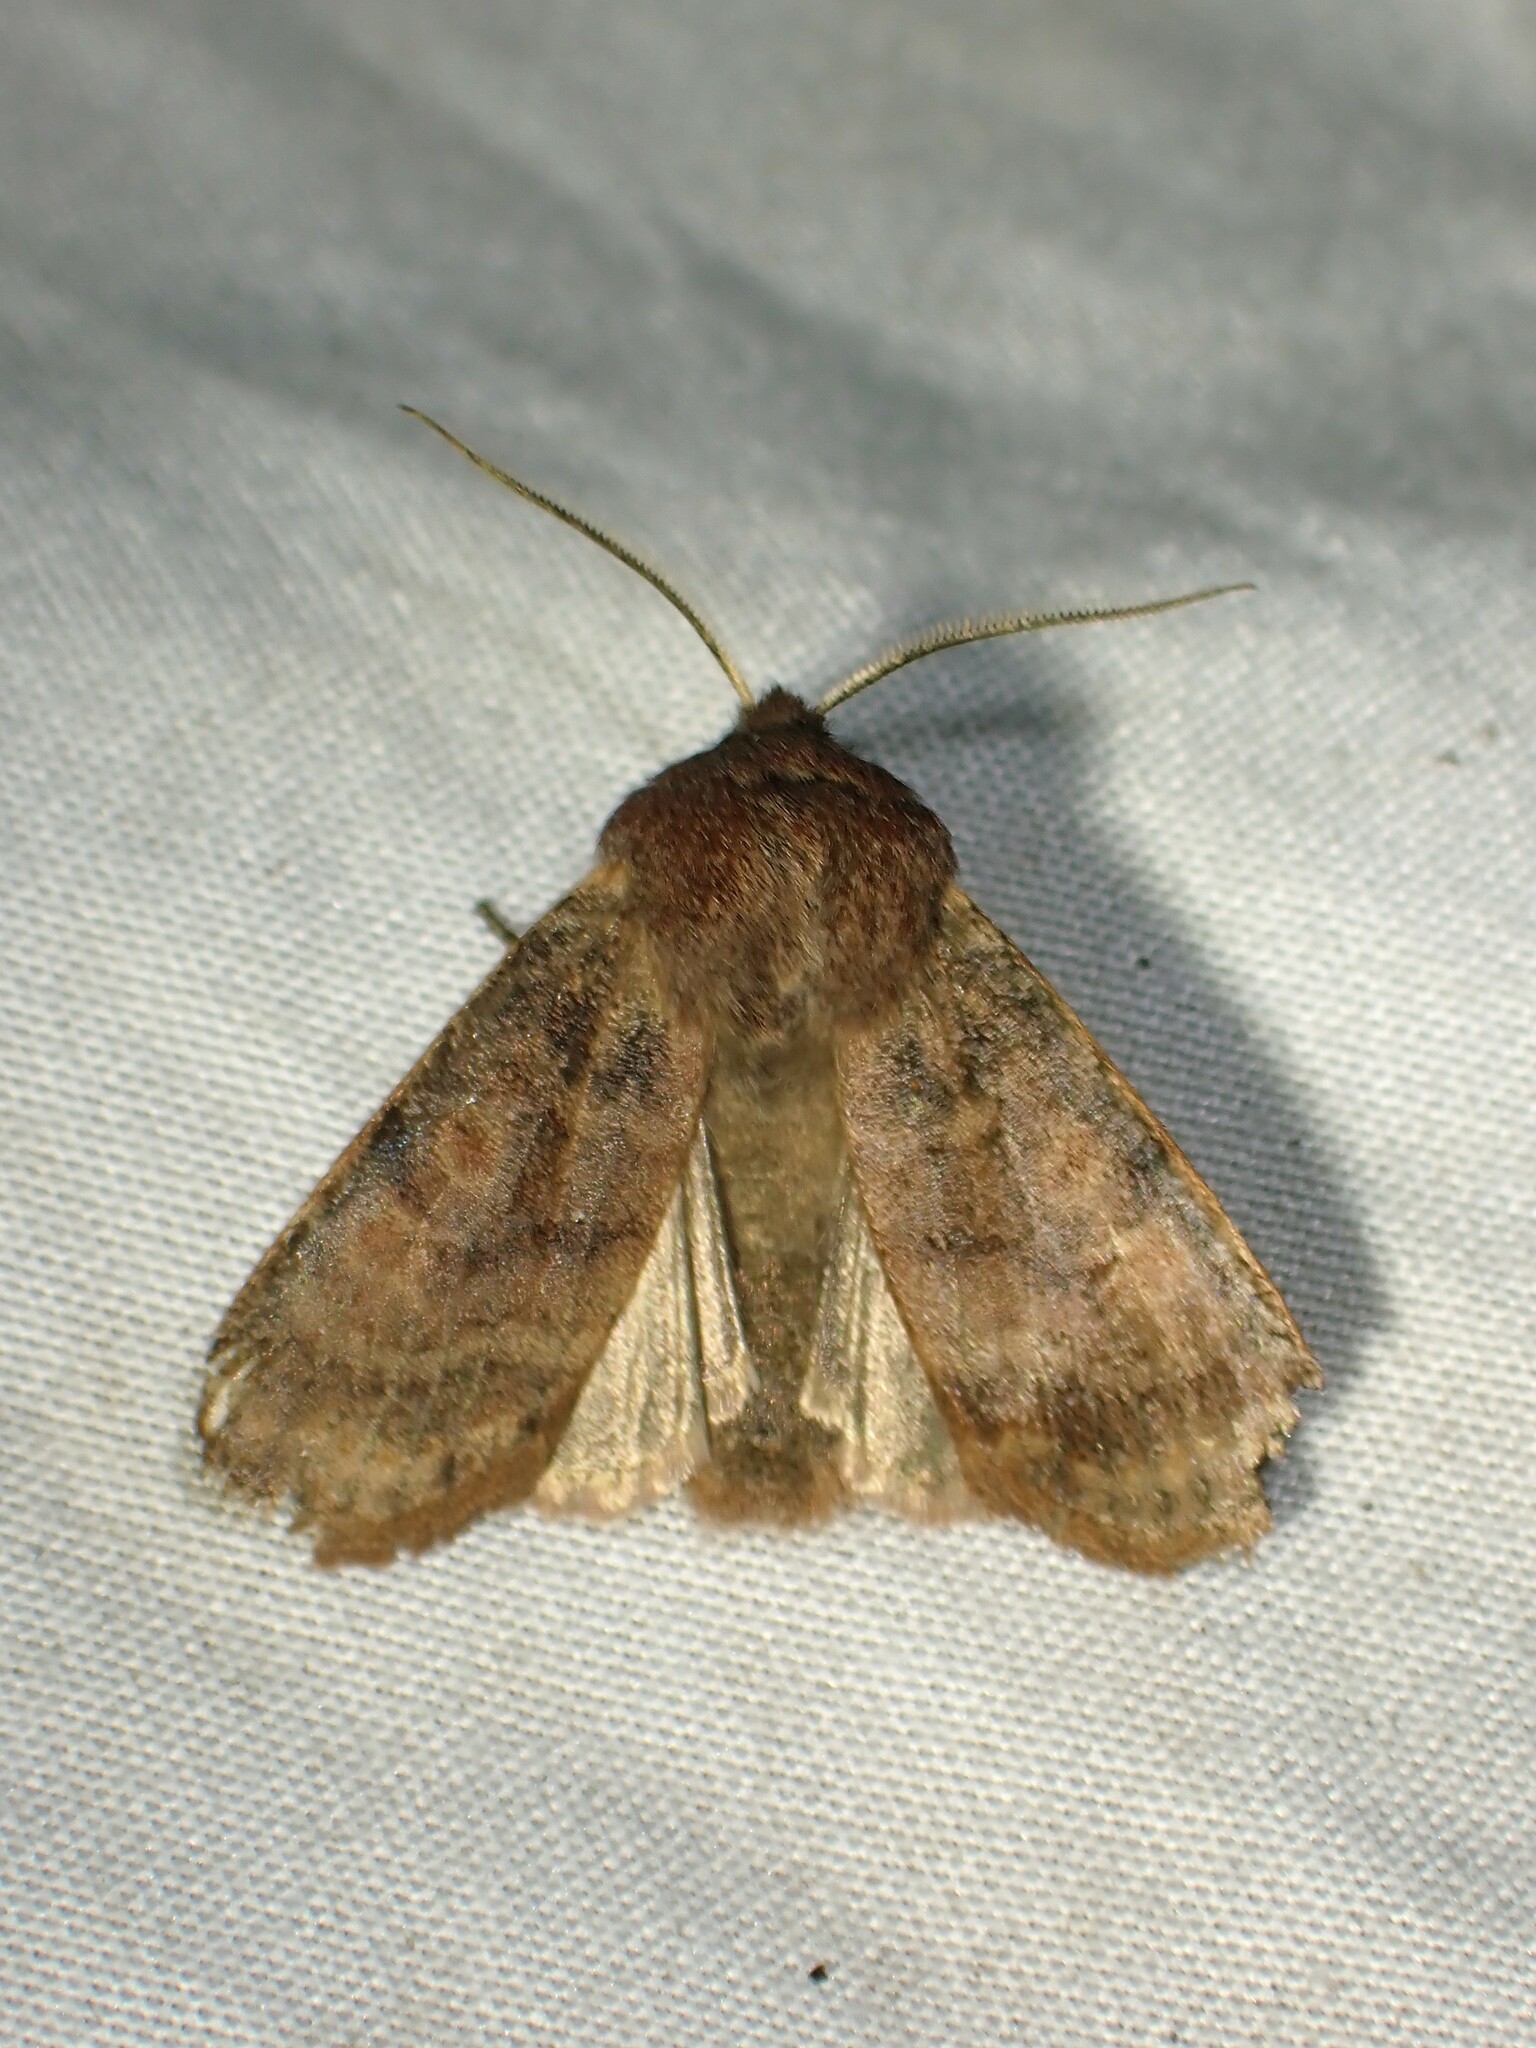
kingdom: Animalia
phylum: Arthropoda
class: Insecta
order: Lepidoptera
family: Noctuidae
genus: Homoglaea
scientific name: Homoglaea hircina
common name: Goat sallow
